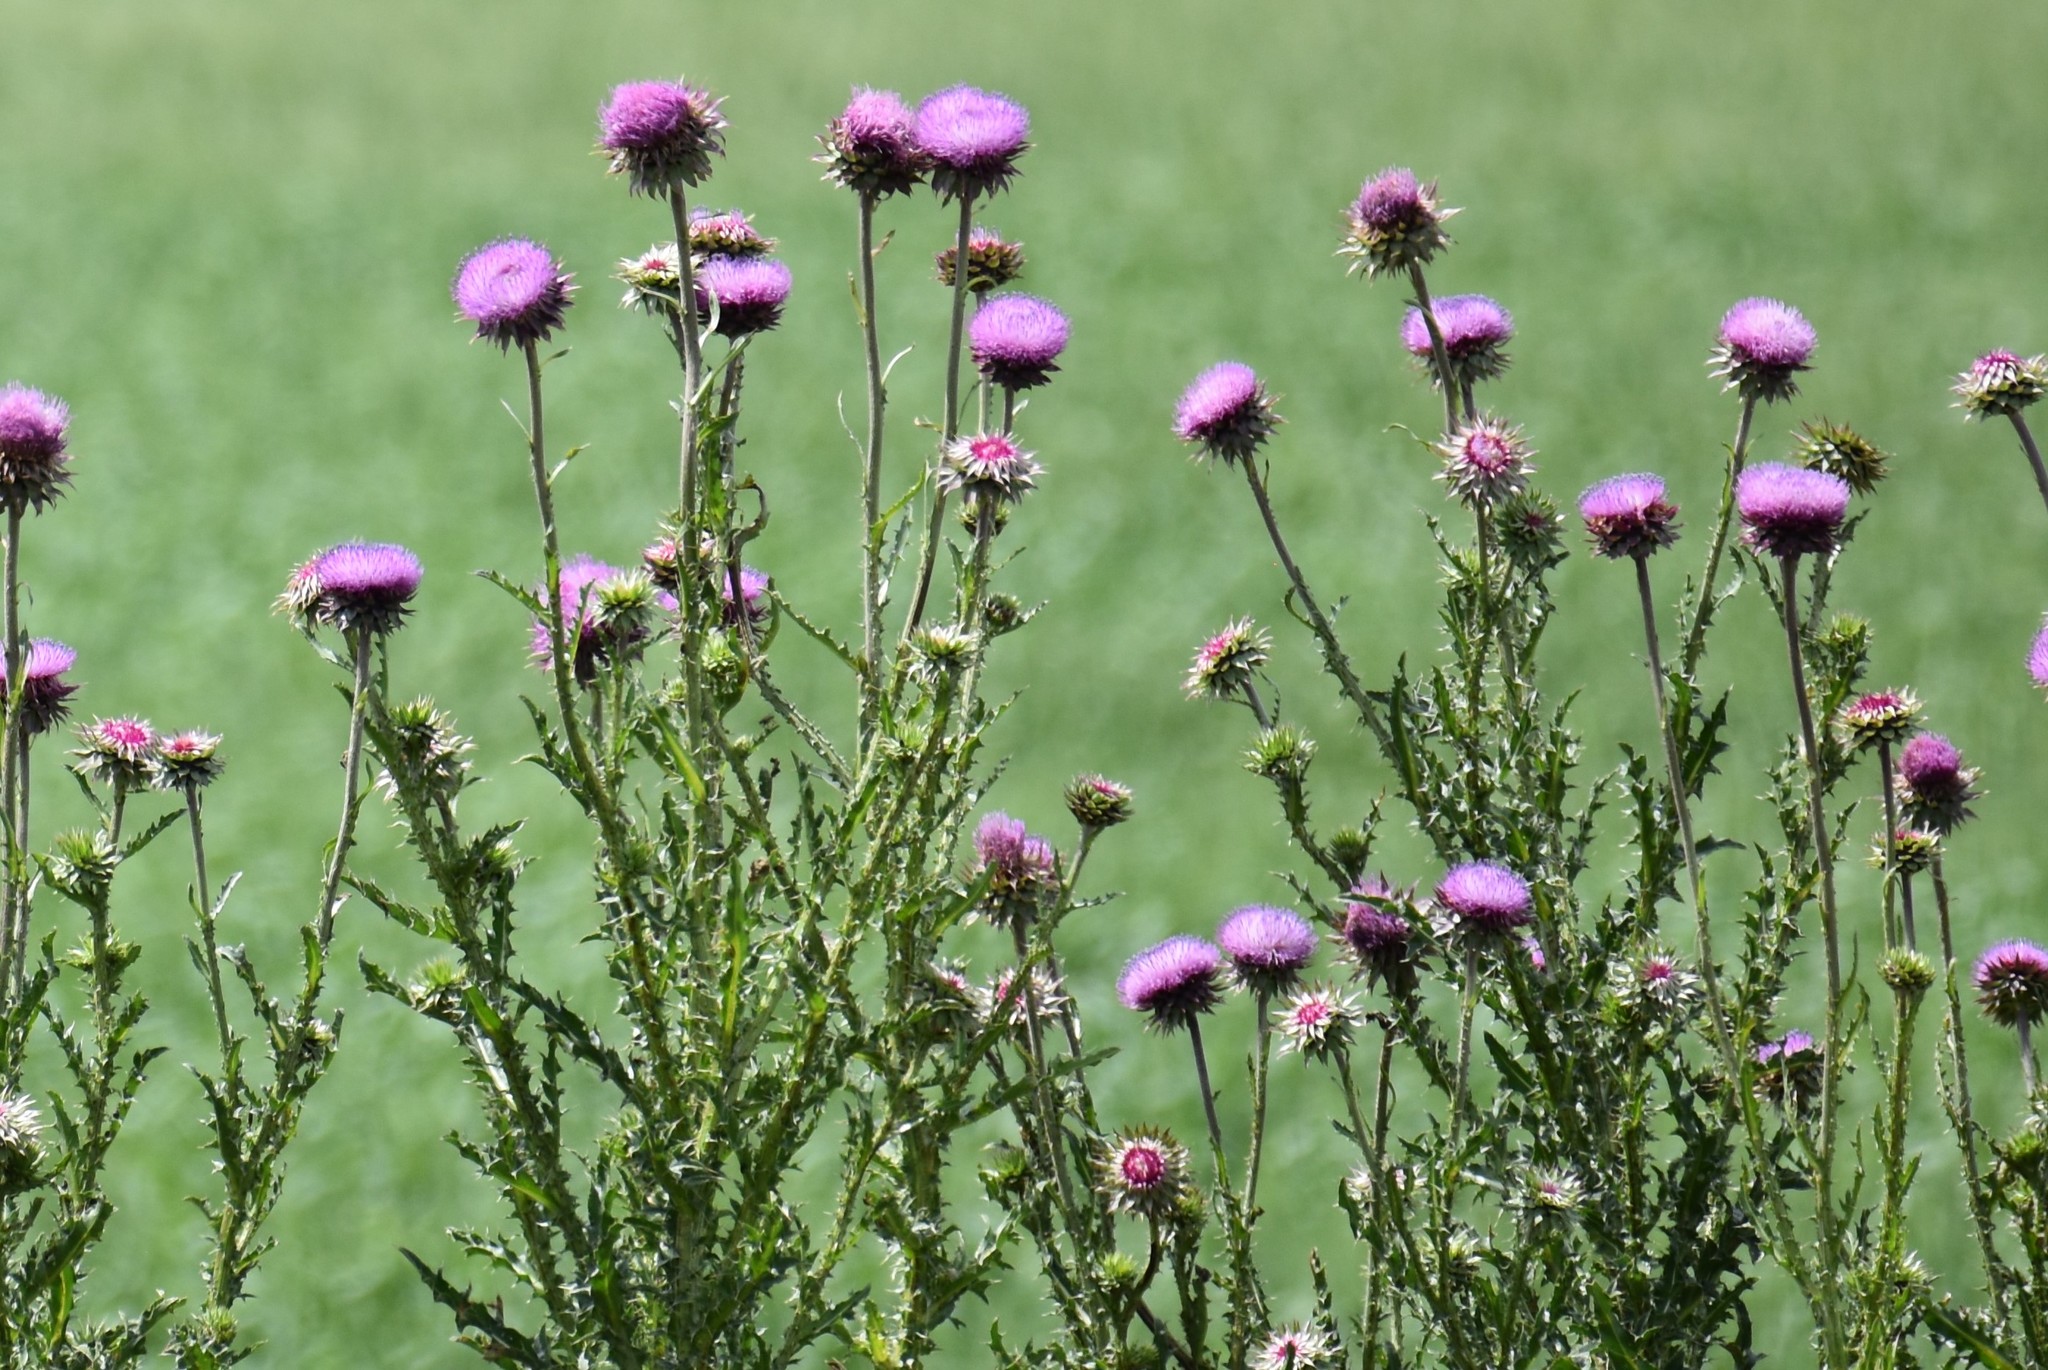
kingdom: Plantae
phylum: Tracheophyta
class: Magnoliopsida
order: Asterales
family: Asteraceae
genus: Carduus
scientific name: Carduus nutans
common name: Musk thistle
